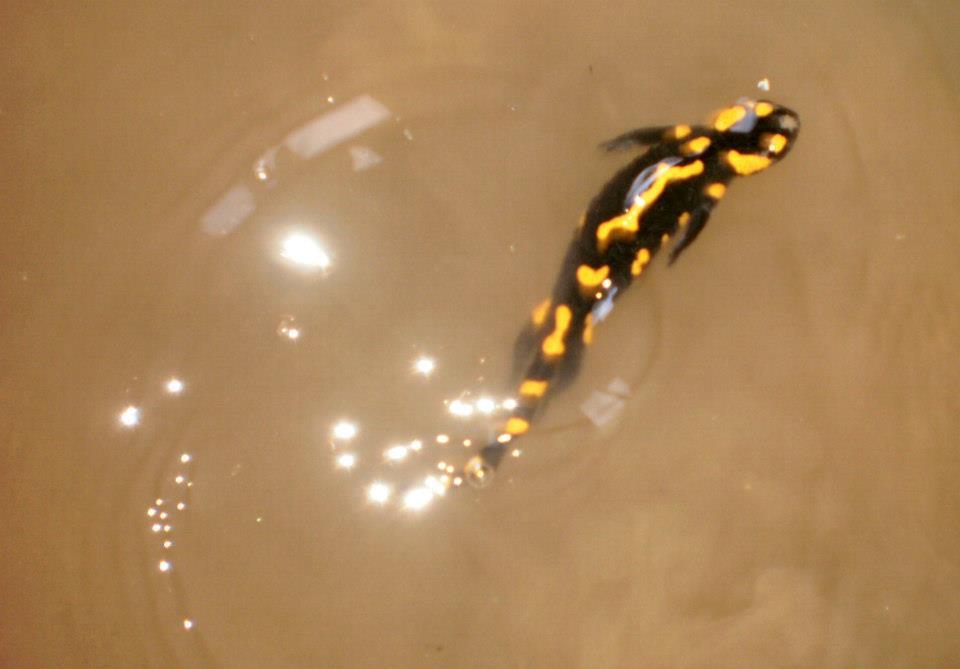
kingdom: Animalia
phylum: Chordata
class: Amphibia
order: Caudata
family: Salamandridae
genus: Salamandra
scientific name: Salamandra salamandra
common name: Fire salamander
